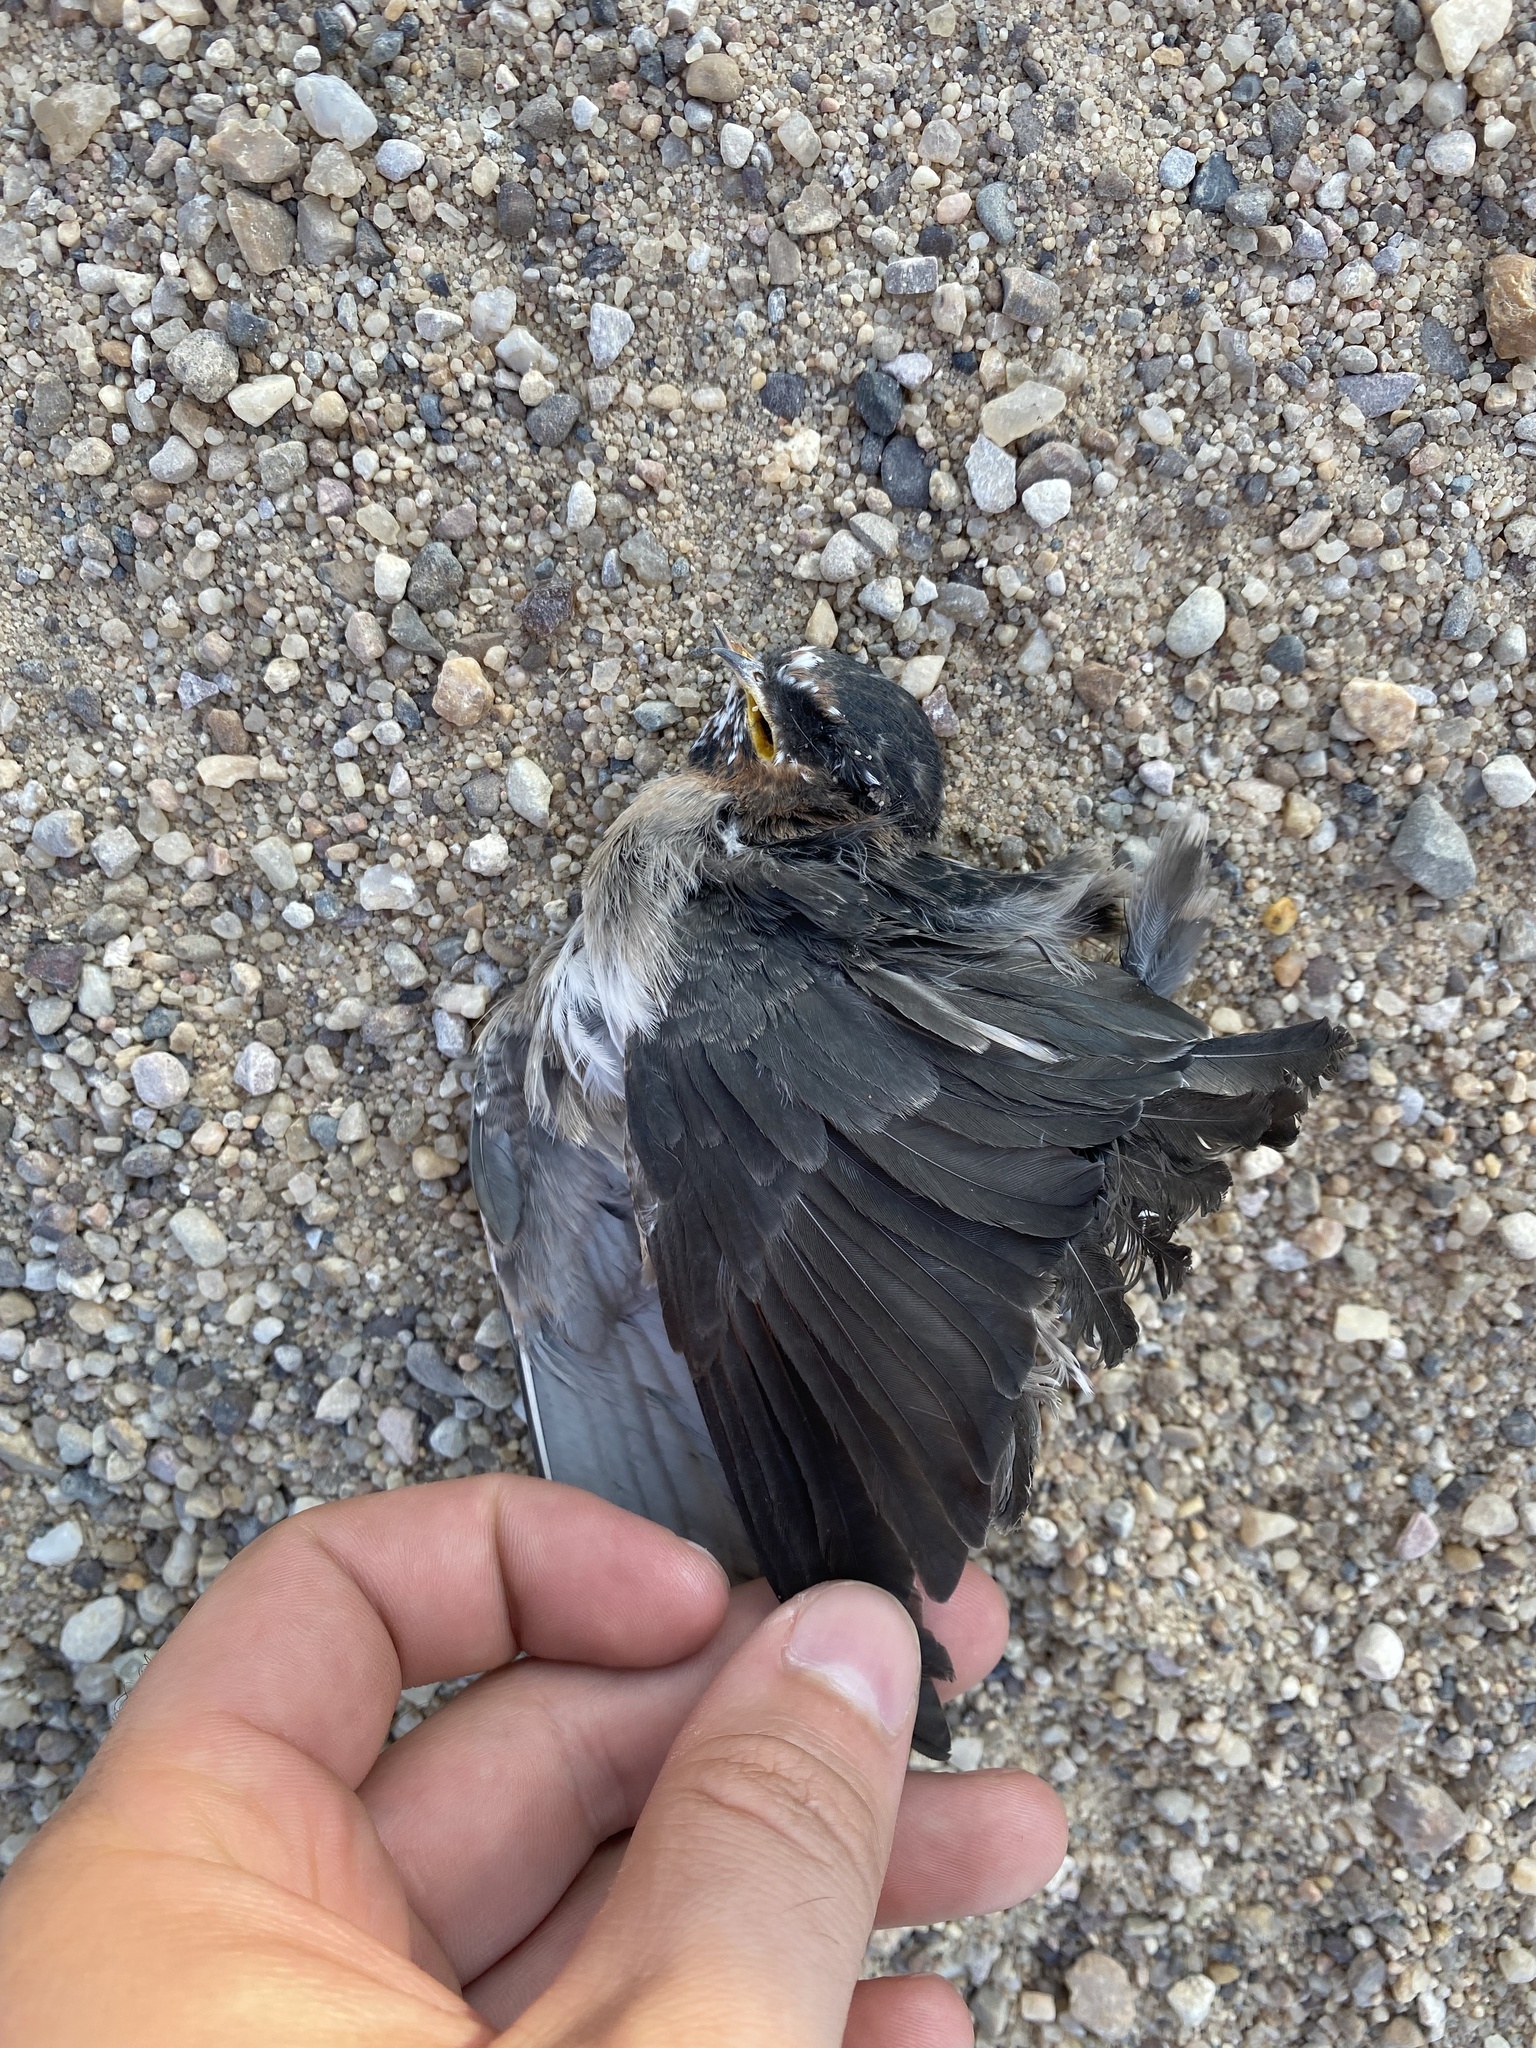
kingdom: Animalia
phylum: Chordata
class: Aves
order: Passeriformes
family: Hirundinidae
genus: Petrochelidon
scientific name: Petrochelidon pyrrhonota
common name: American cliff swallow
